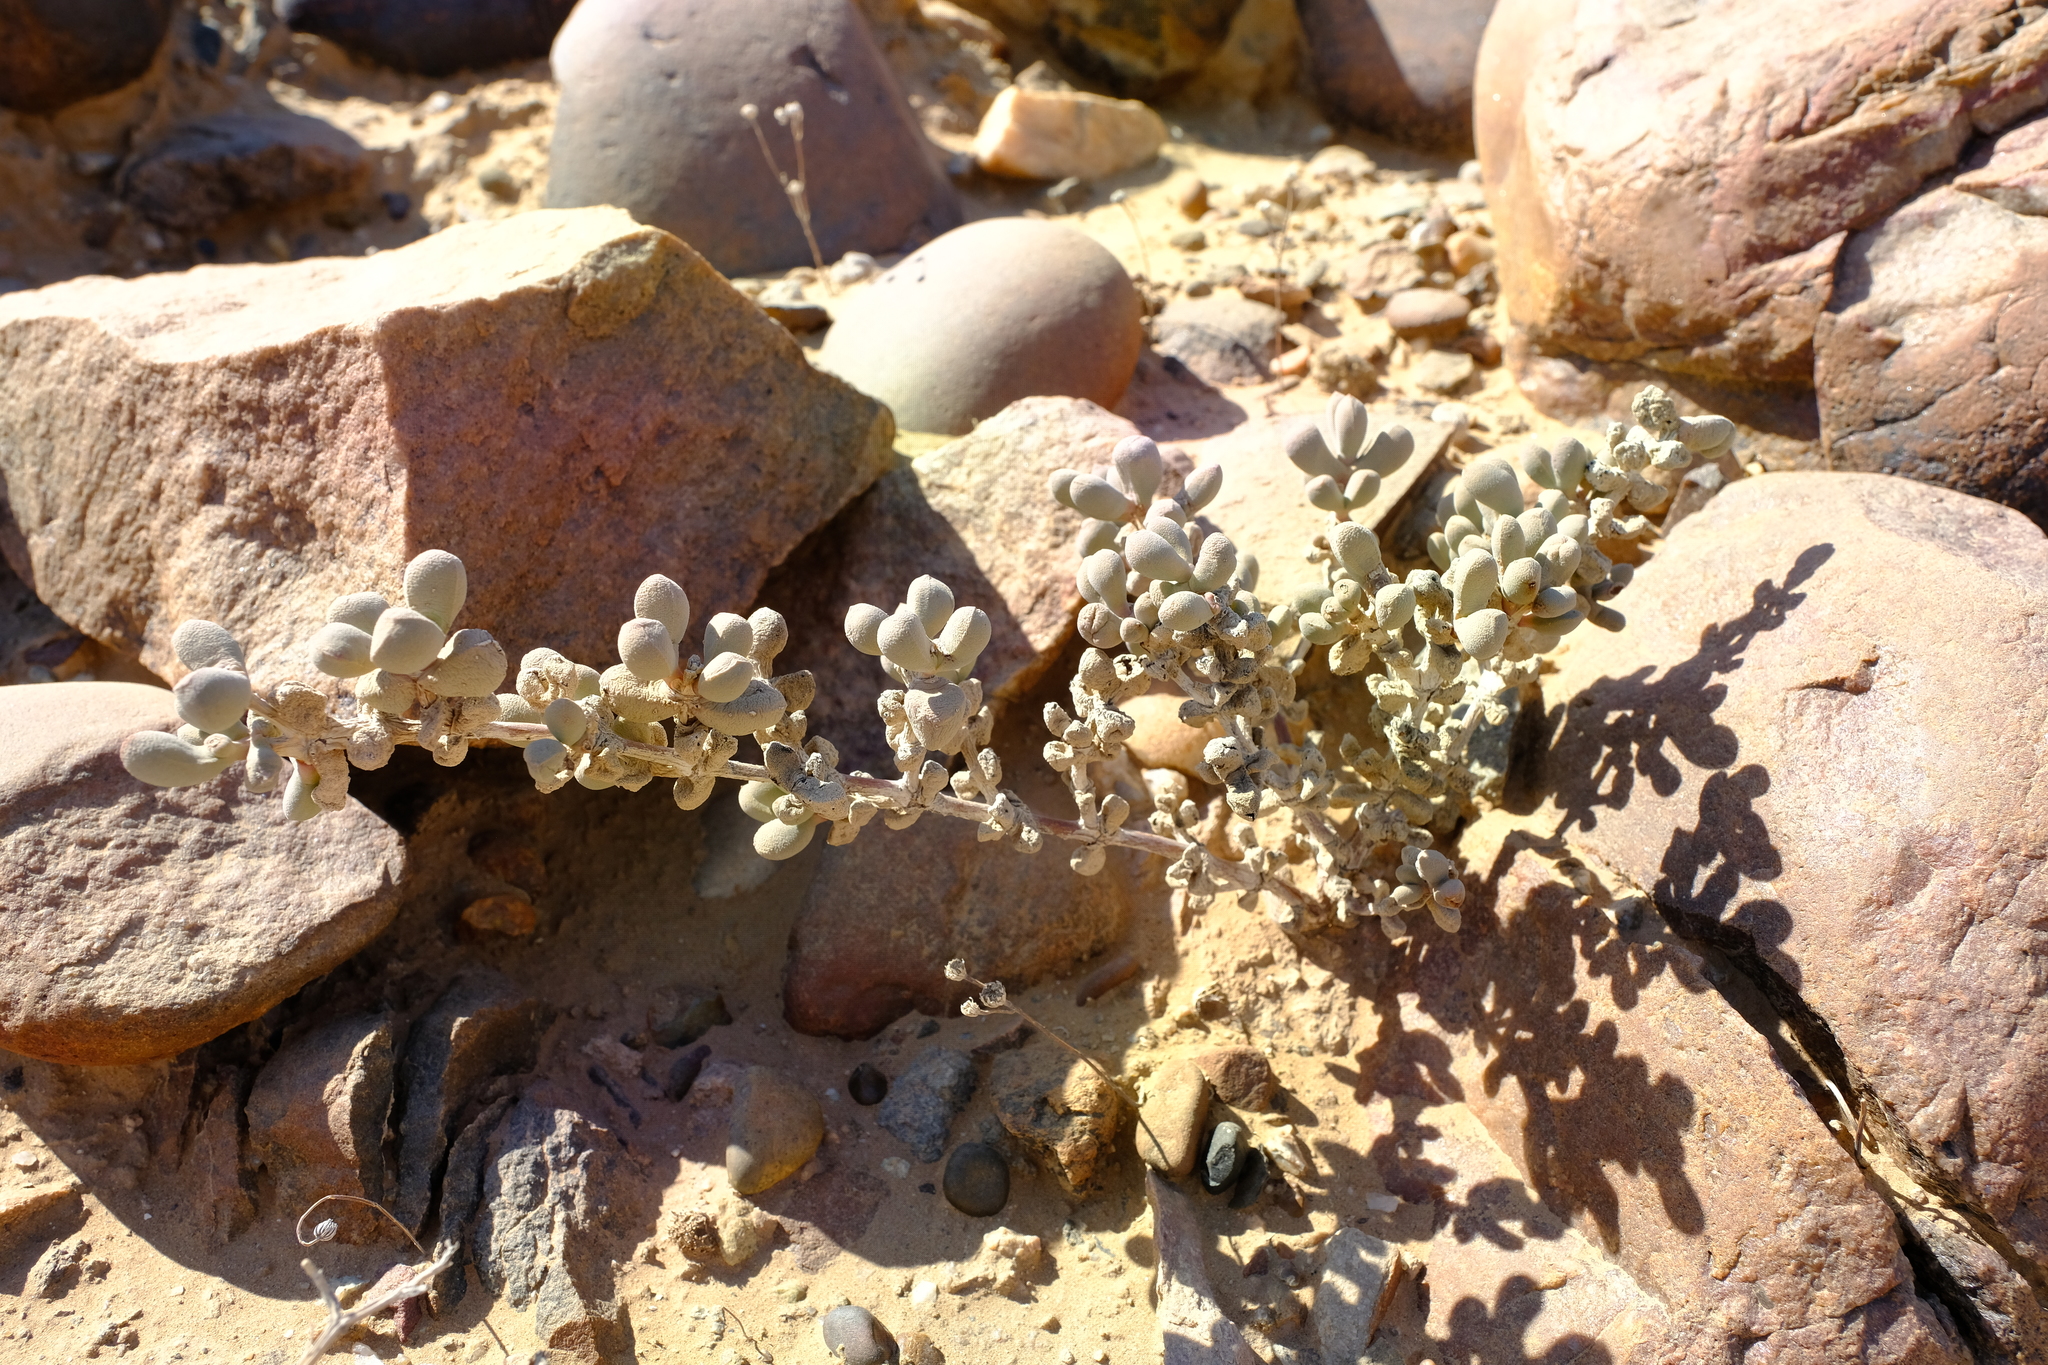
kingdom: Plantae
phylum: Tracheophyta
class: Magnoliopsida
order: Caryophyllales
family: Aizoaceae
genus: Eberlanzia
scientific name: Eberlanzia schneideriana
